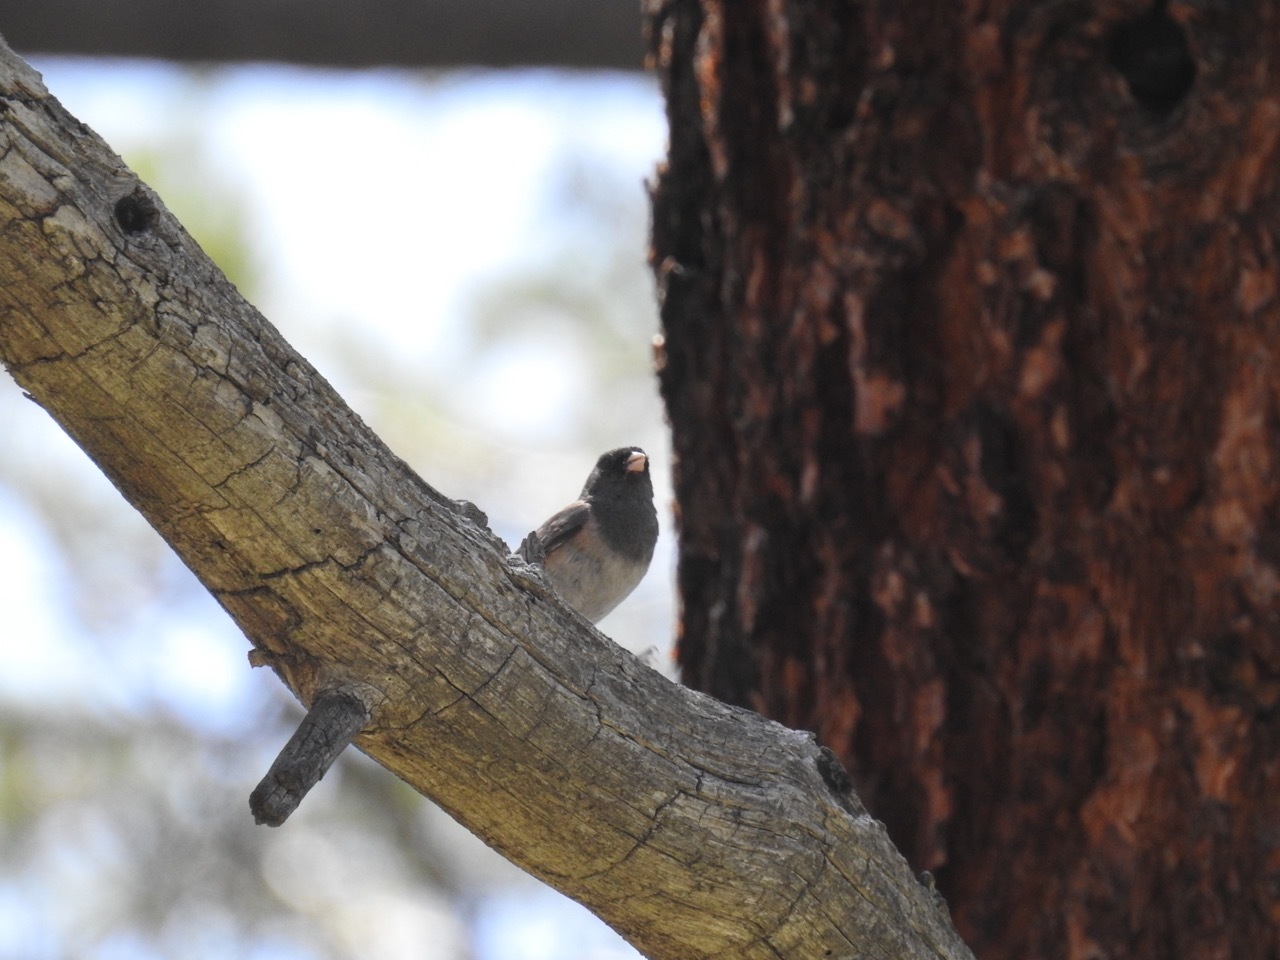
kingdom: Animalia
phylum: Chordata
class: Aves
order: Passeriformes
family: Passerellidae
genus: Junco
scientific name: Junco hyemalis
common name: Dark-eyed junco
